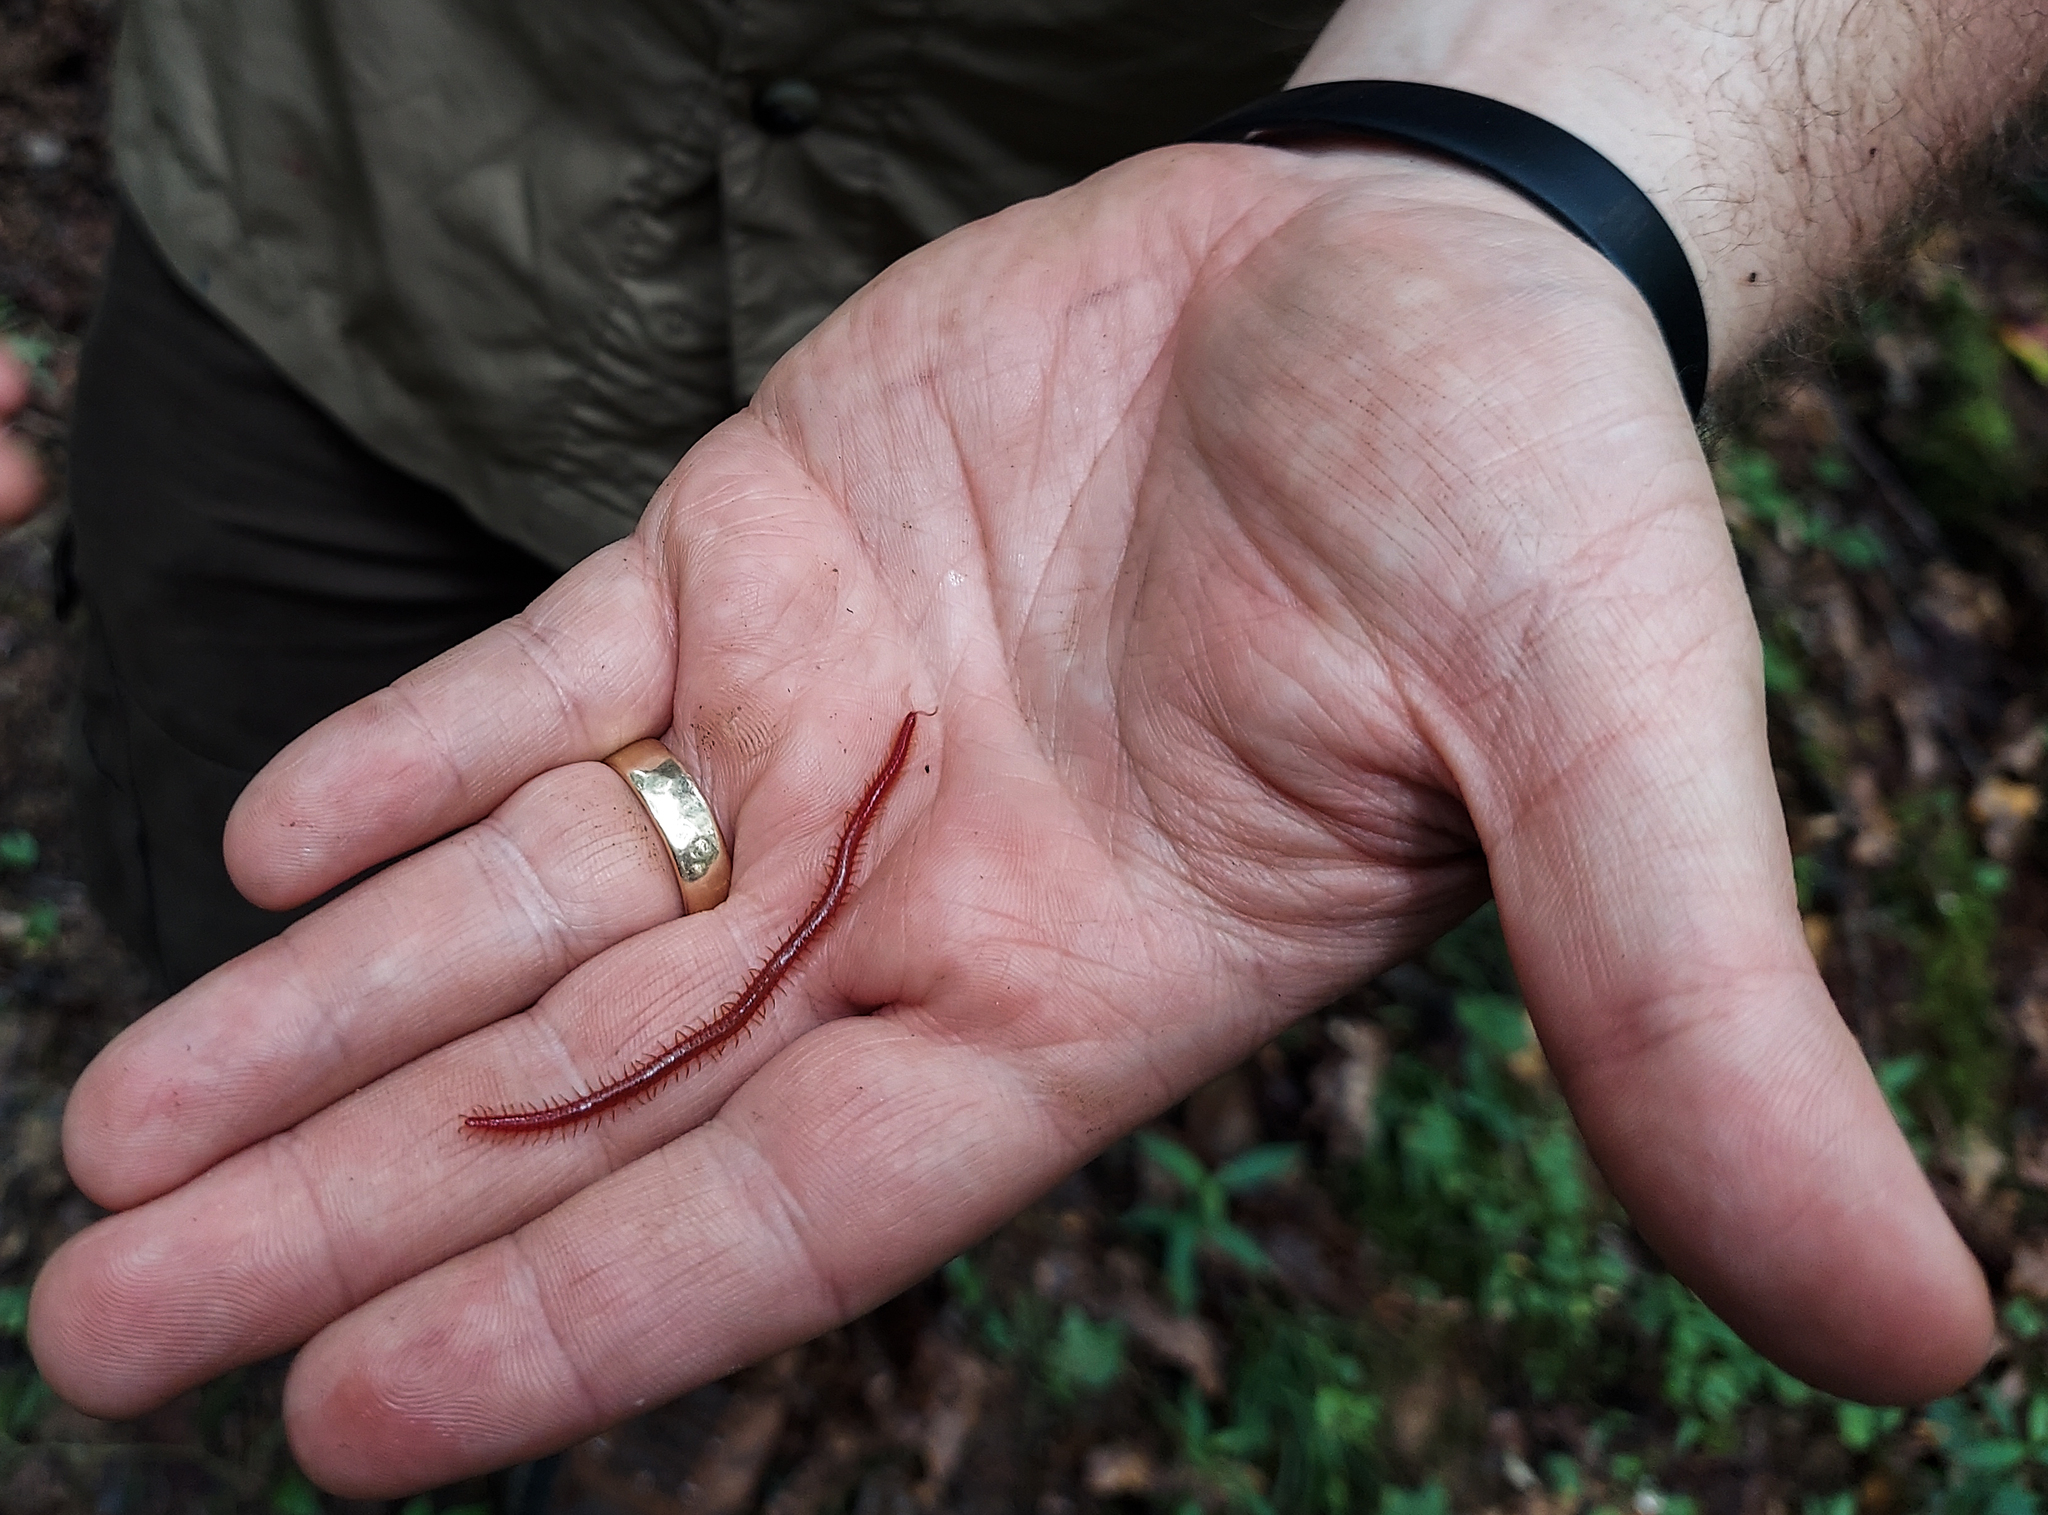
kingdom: Animalia
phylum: Arthropoda
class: Chilopoda
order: Geophilomorpha
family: Linotaeniidae
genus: Strigamia
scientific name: Strigamia bidens
